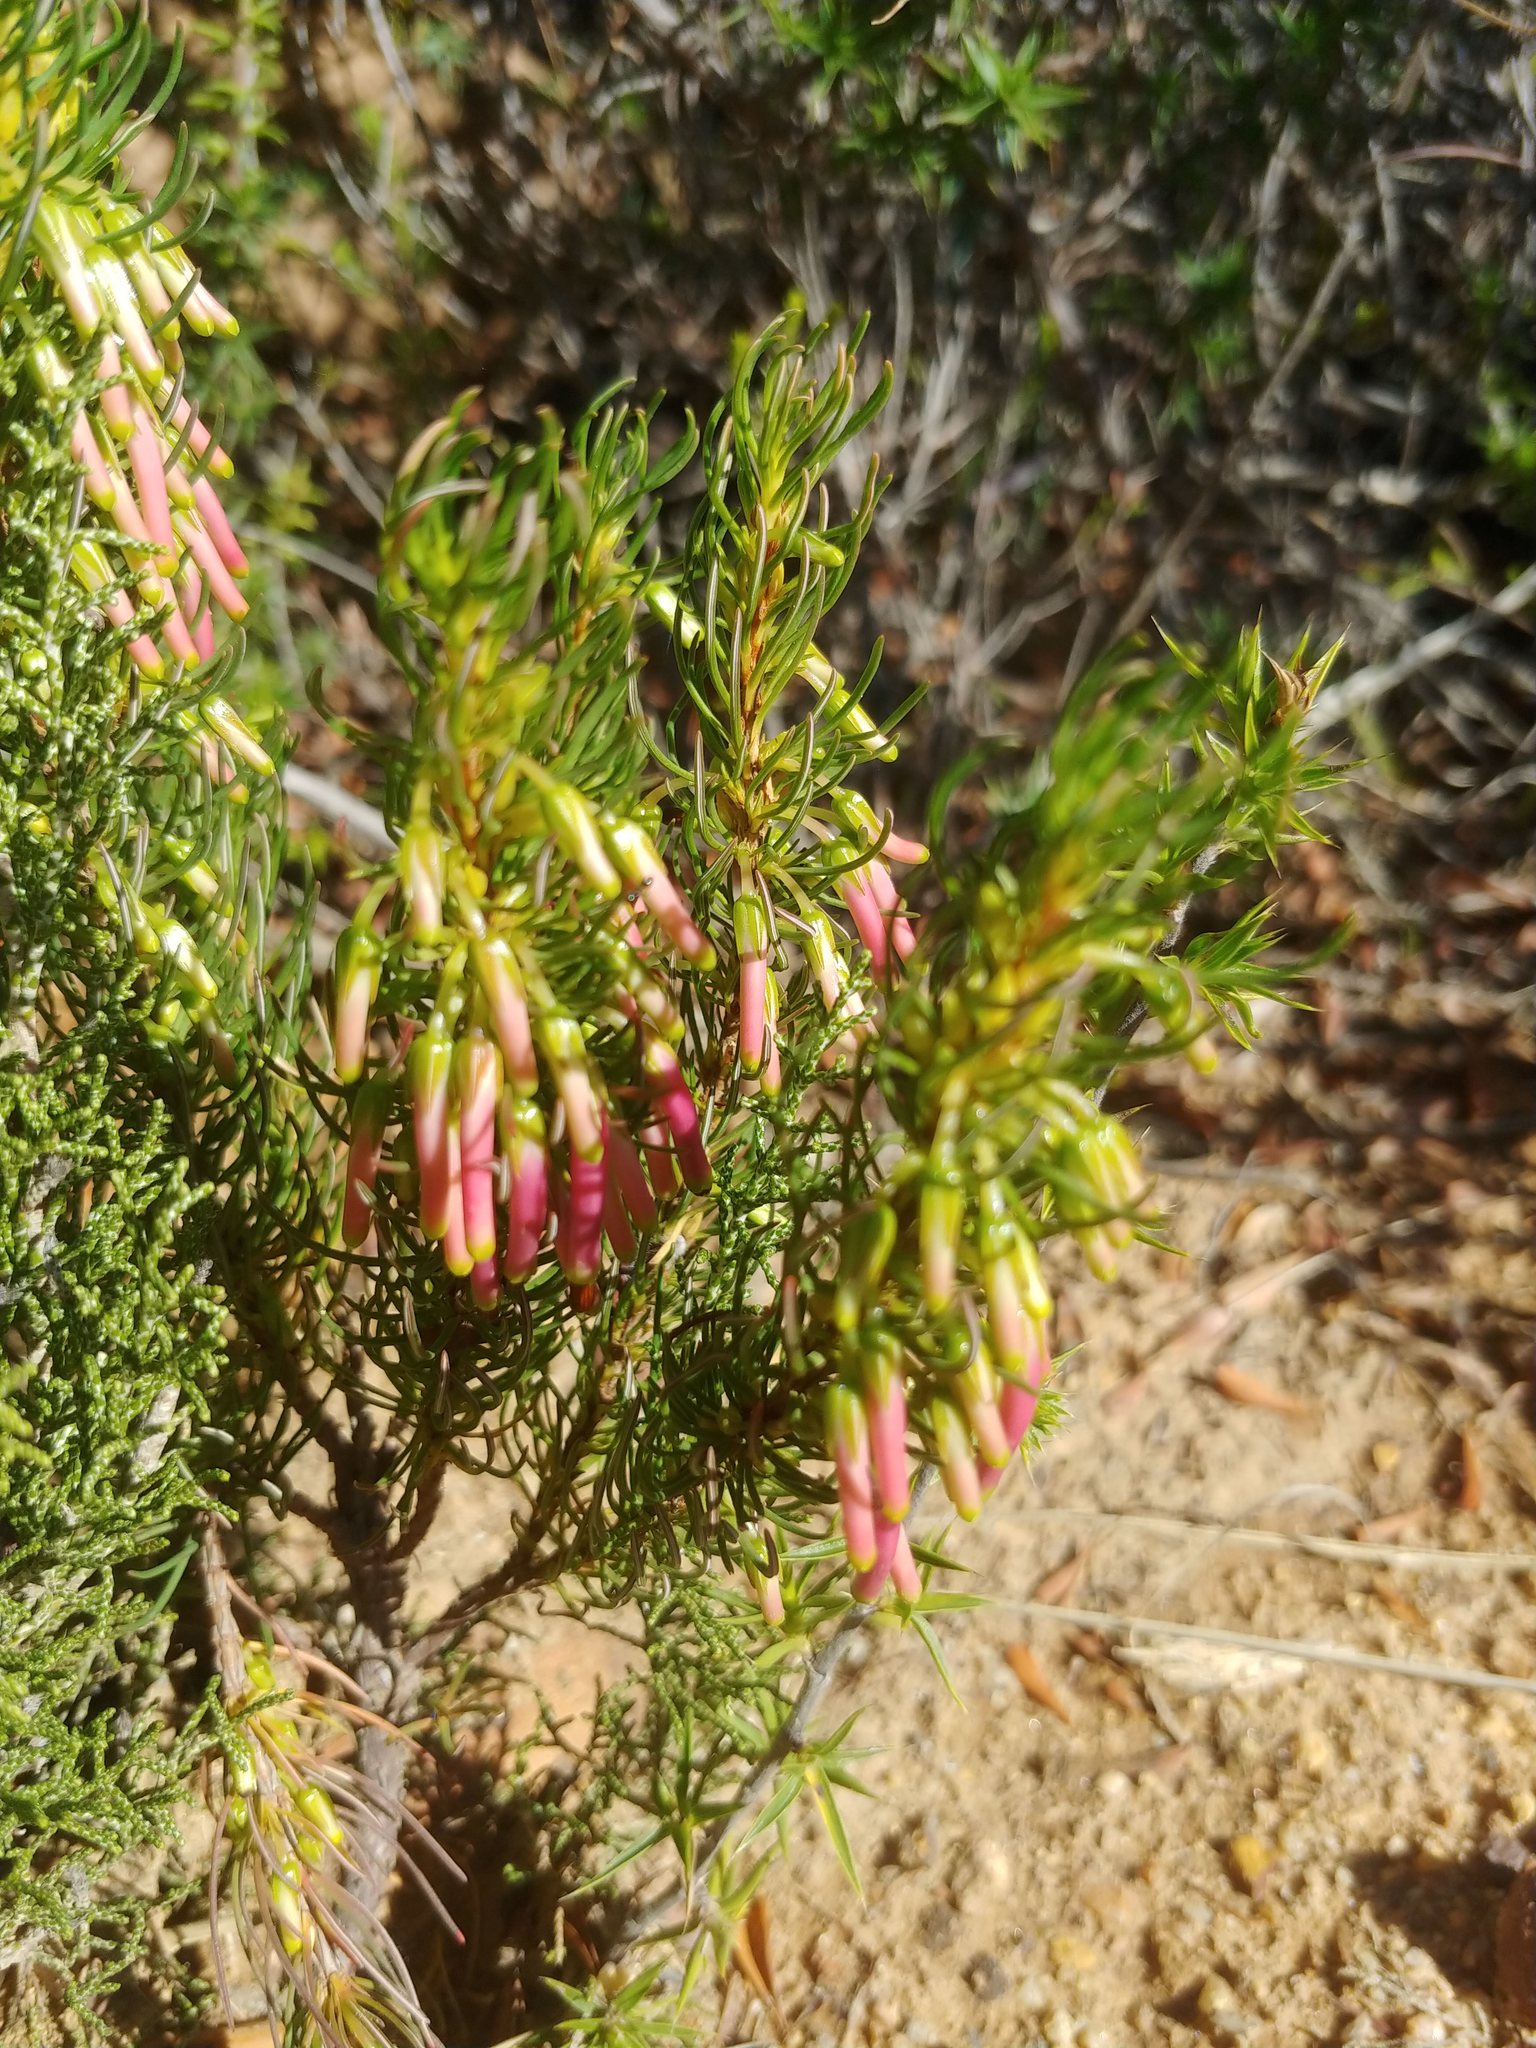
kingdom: Plantae
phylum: Tracheophyta
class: Magnoliopsida
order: Ericales
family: Ericaceae
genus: Erica
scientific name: Erica plukenetii
